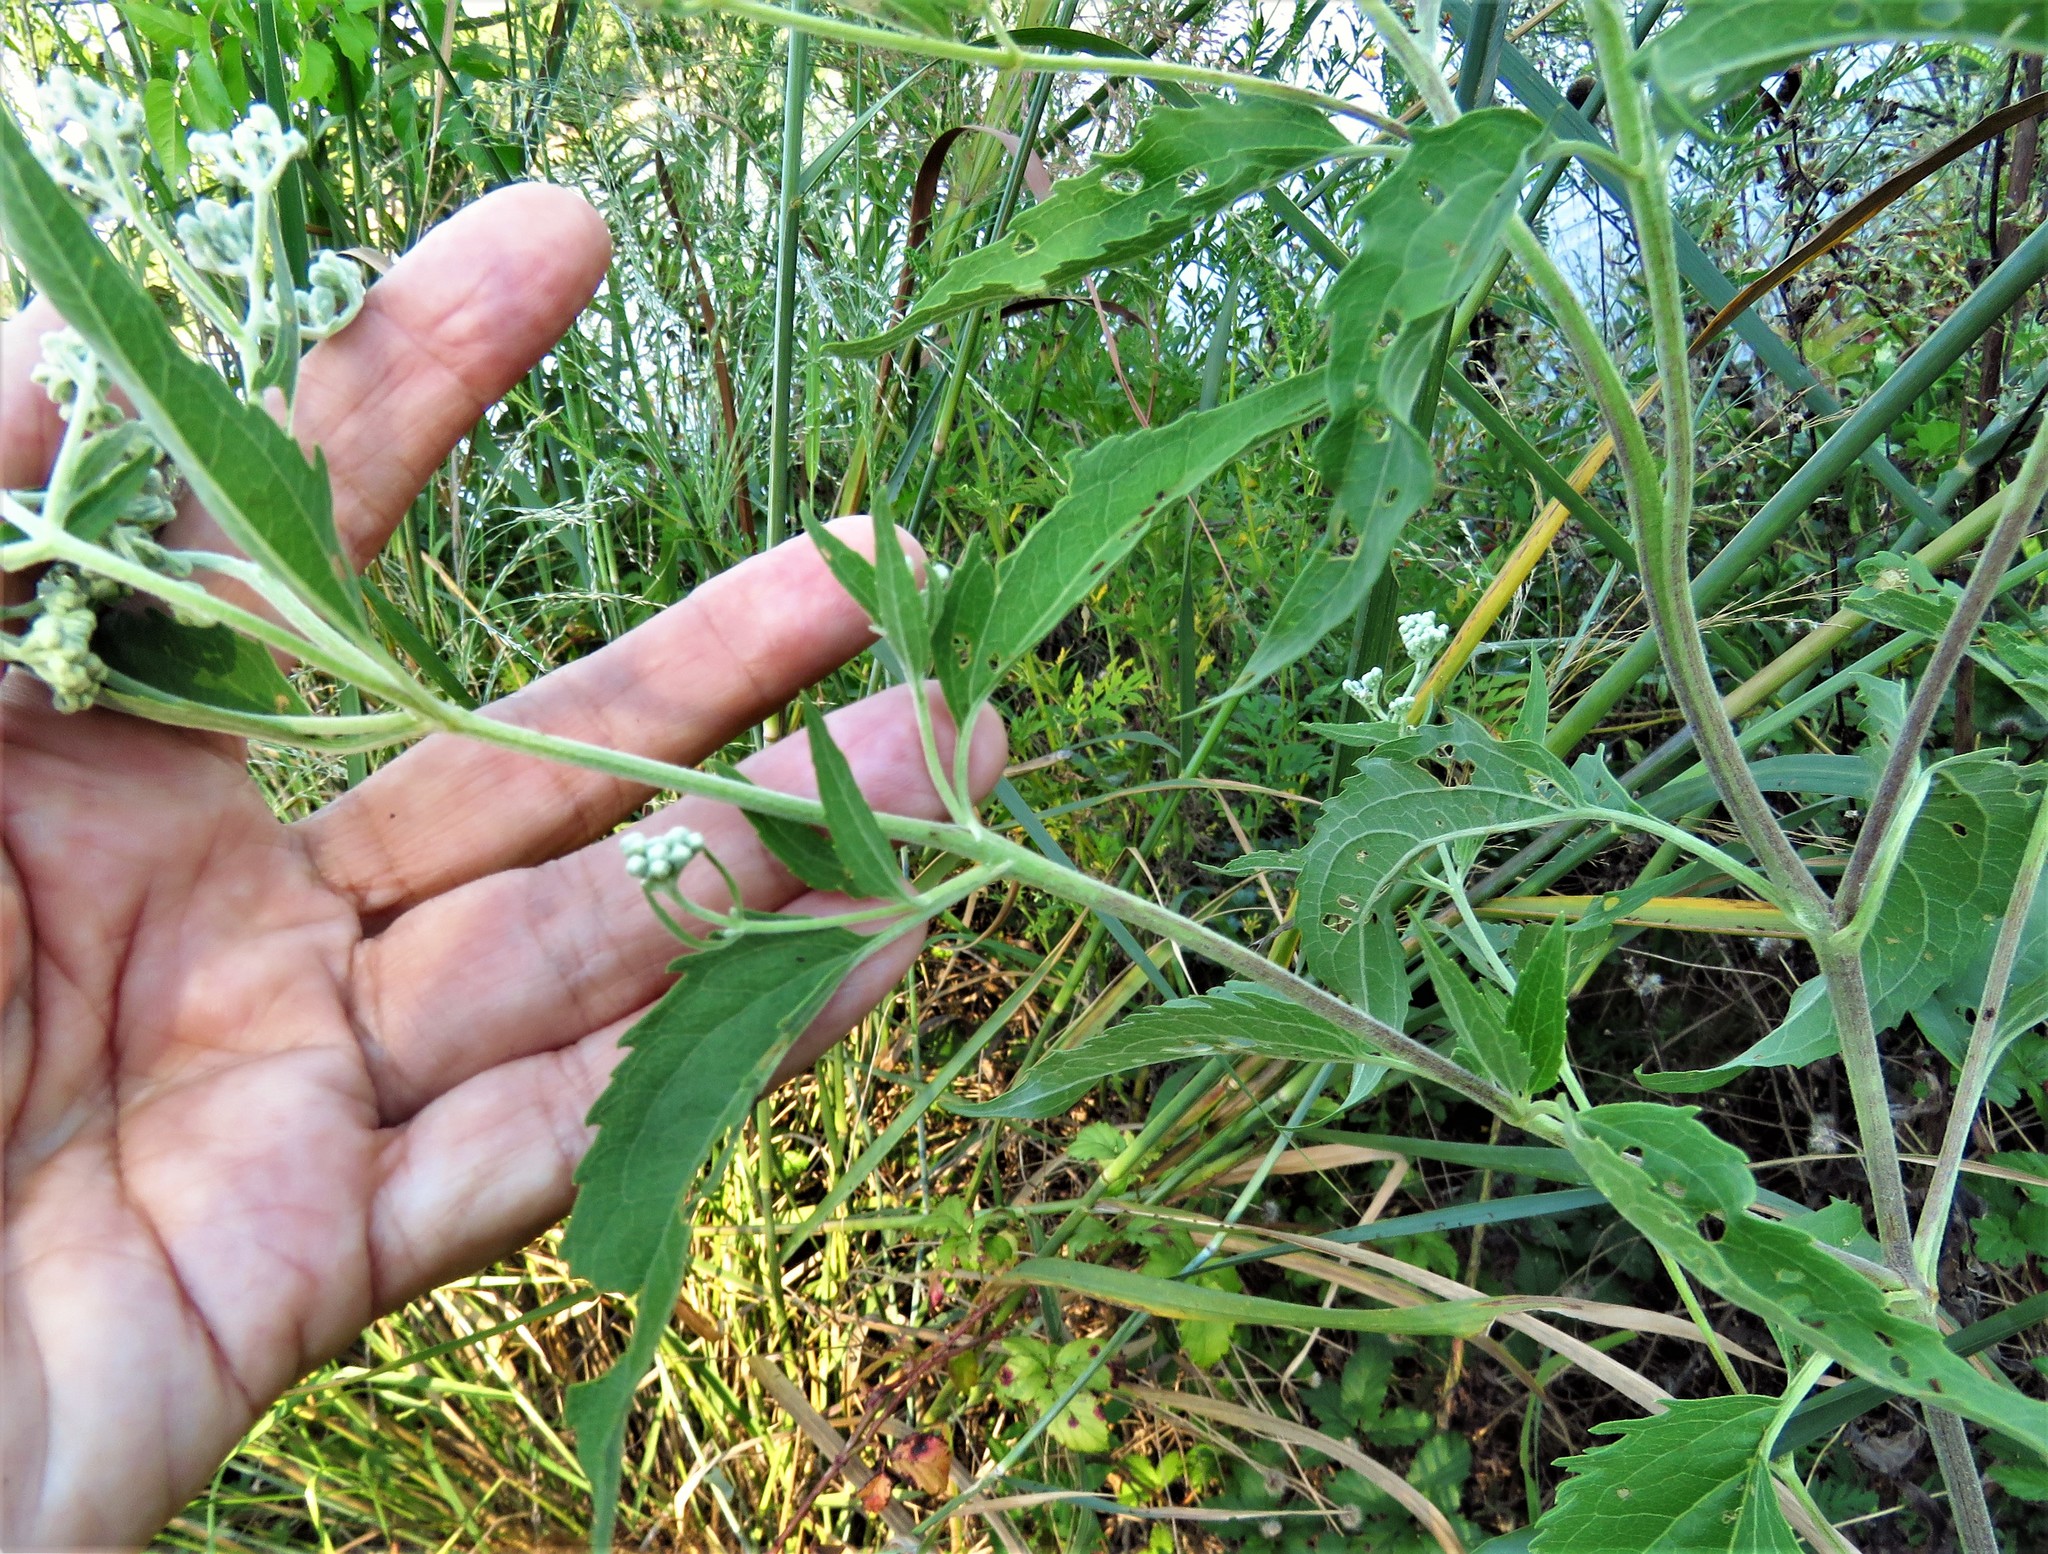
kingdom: Plantae
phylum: Tracheophyta
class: Magnoliopsida
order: Asterales
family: Asteraceae
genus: Eupatorium
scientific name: Eupatorium serotinum
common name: Late boneset
